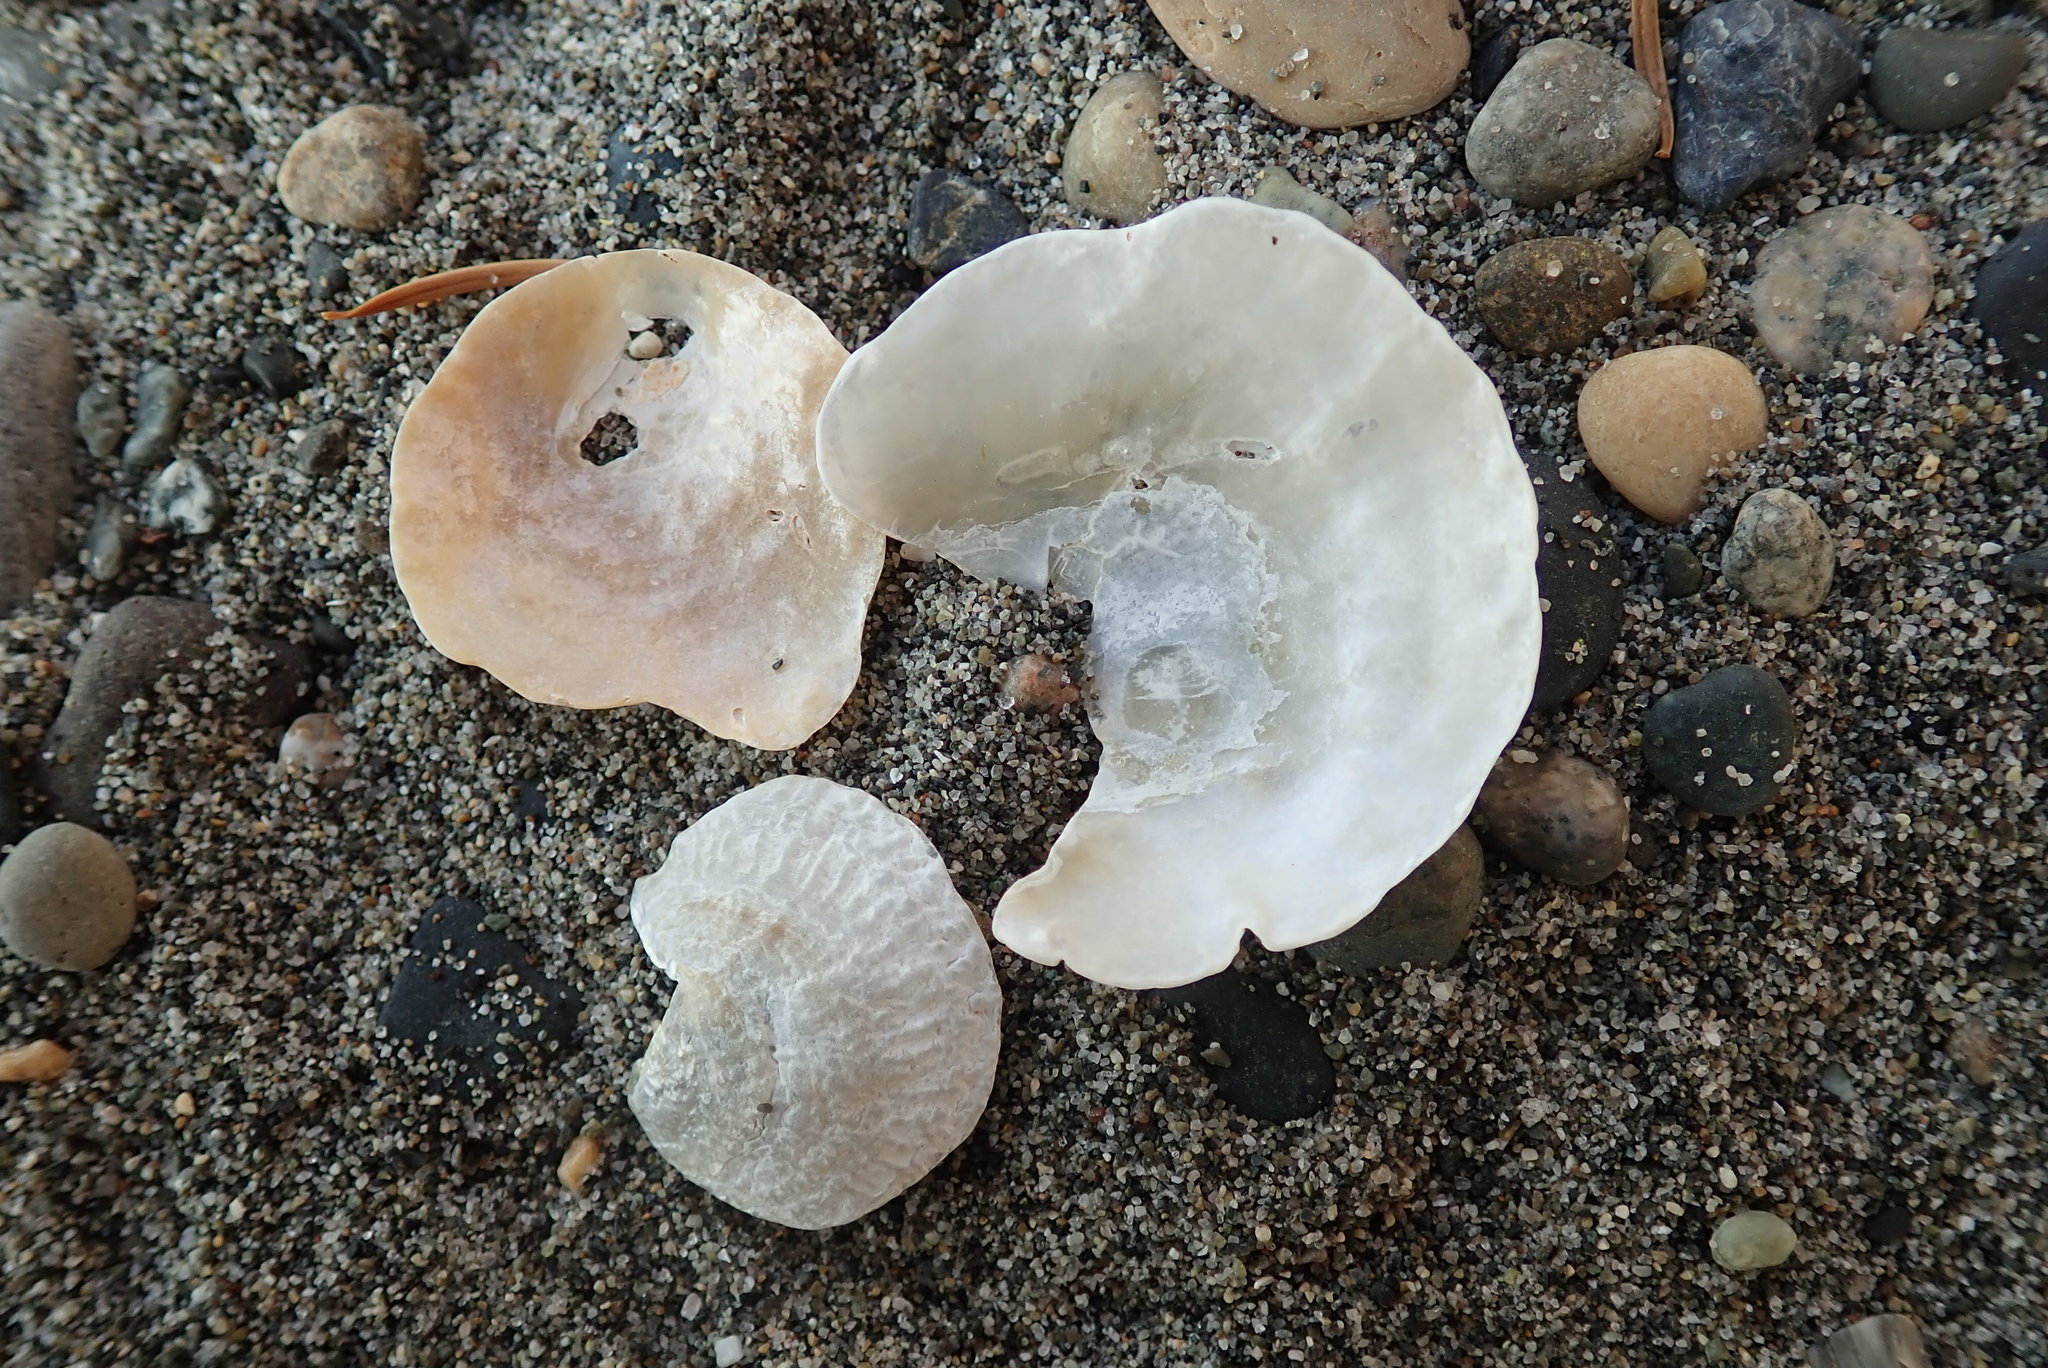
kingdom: Animalia
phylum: Mollusca
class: Bivalvia
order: Pectinida
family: Anomiidae
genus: Pododesmus
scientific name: Pododesmus macrochisma
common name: Alaska jingle
